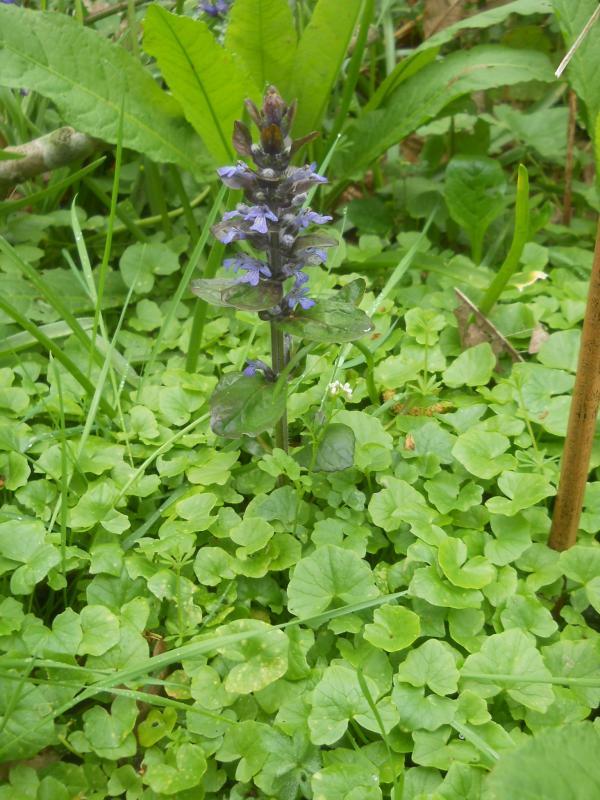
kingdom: Plantae
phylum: Tracheophyta
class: Magnoliopsida
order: Lamiales
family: Lamiaceae
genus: Ajuga
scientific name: Ajuga reptans
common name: Bugle
